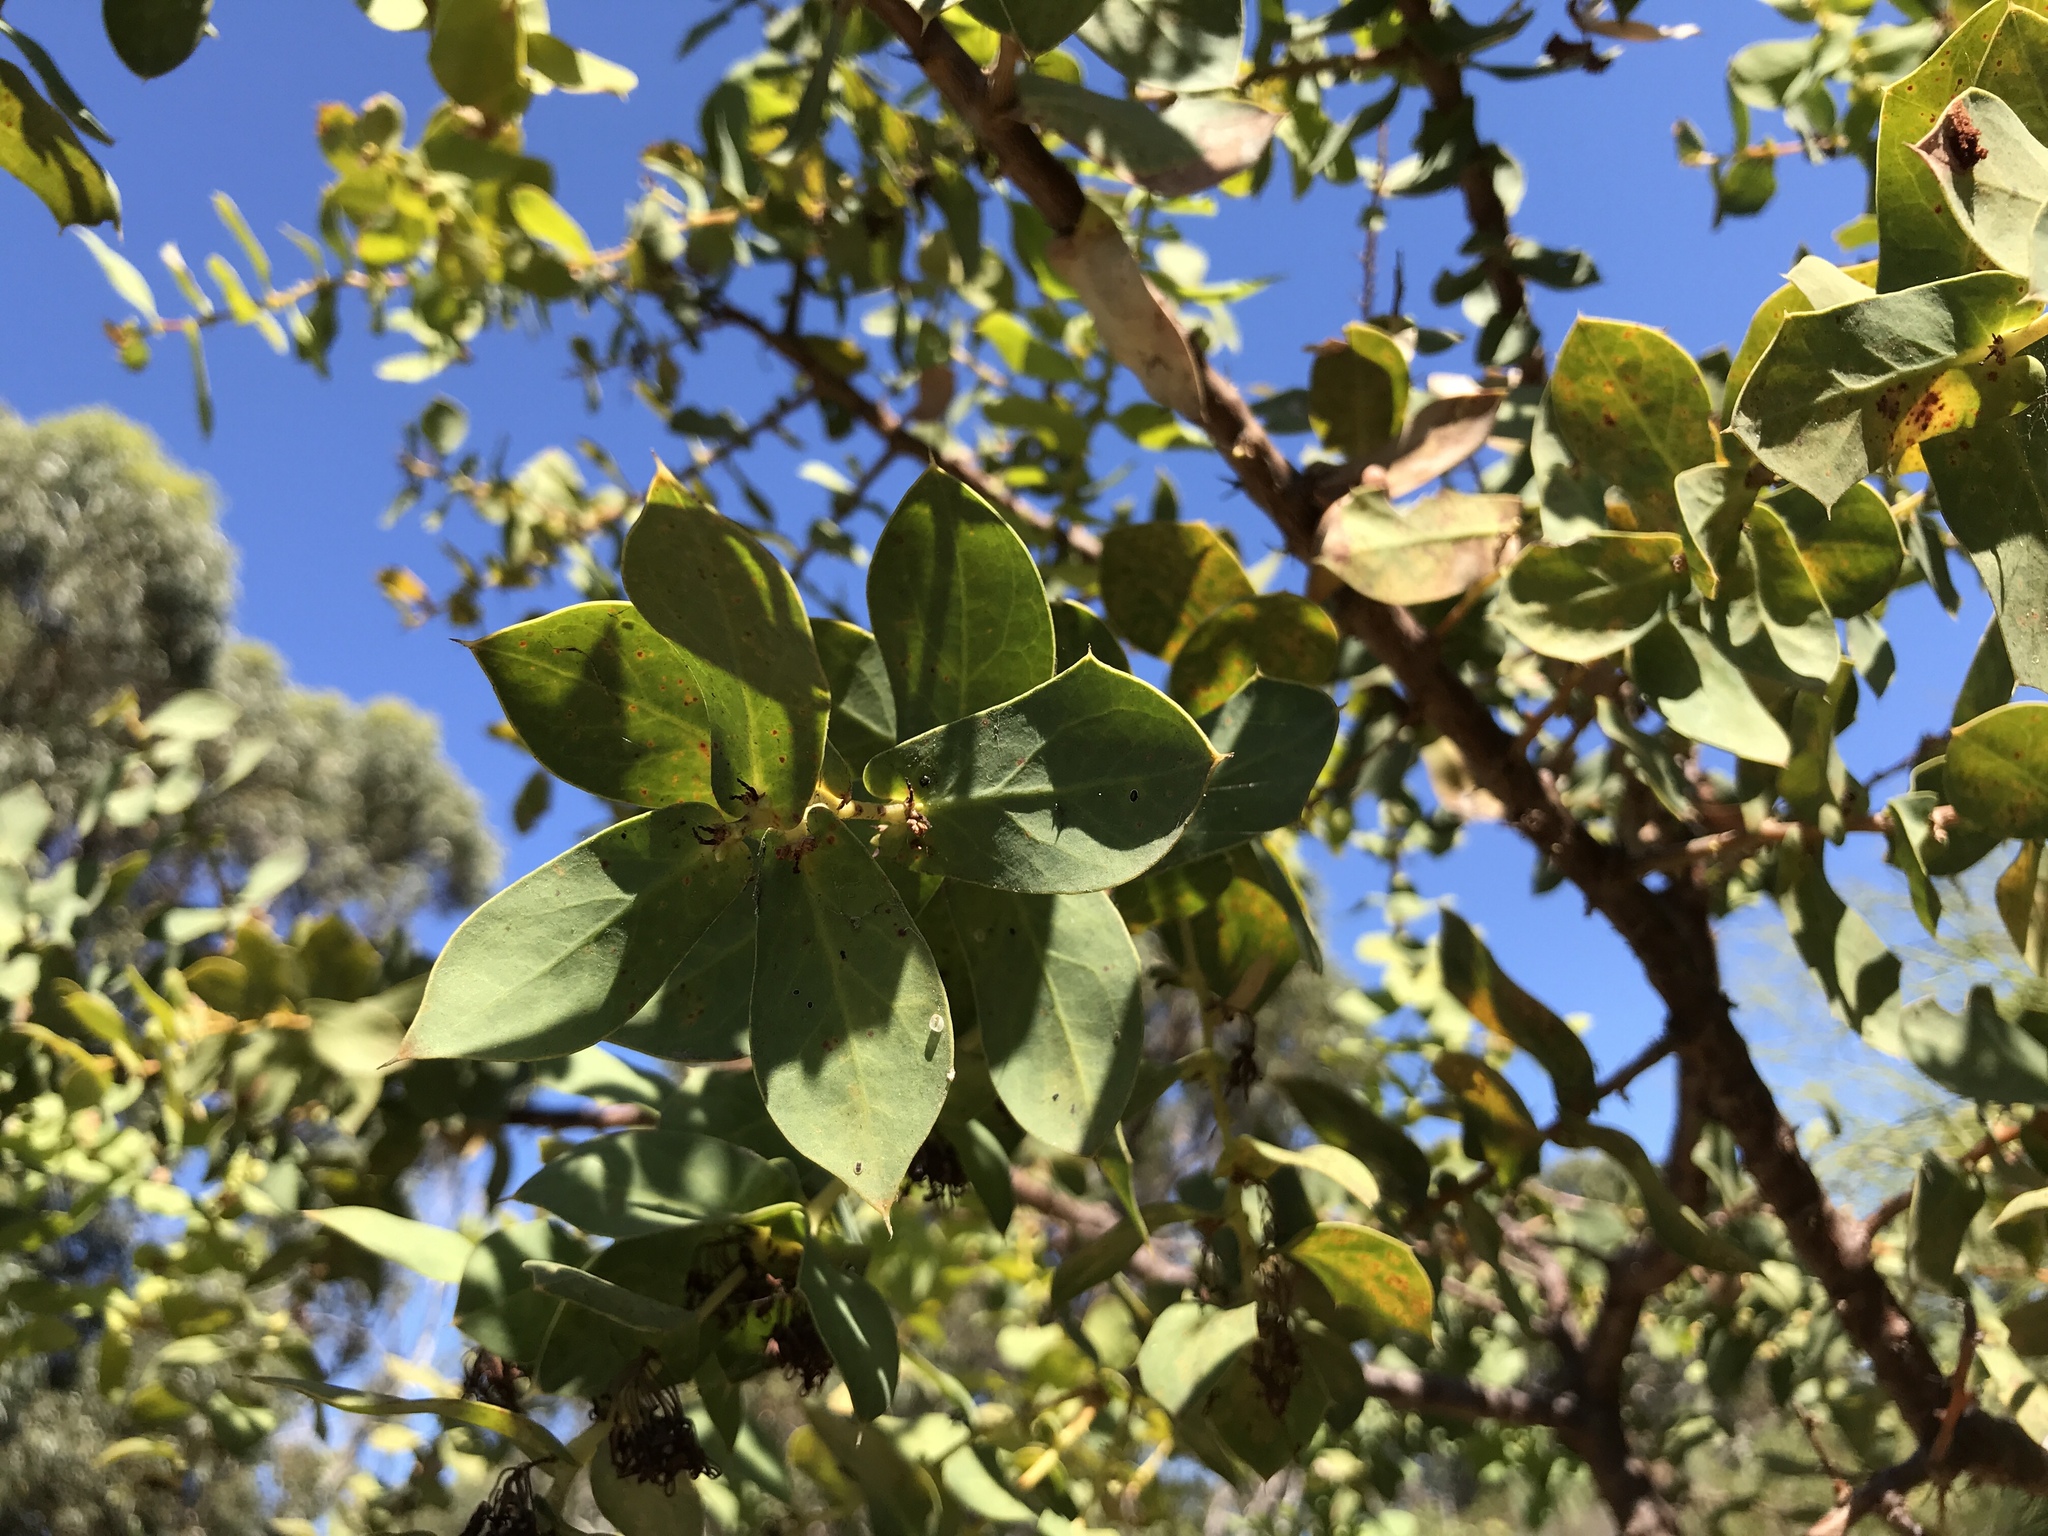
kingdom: Plantae
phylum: Tracheophyta
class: Magnoliopsida
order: Proteales
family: Proteaceae
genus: Hakea
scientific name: Hakea prostrata
